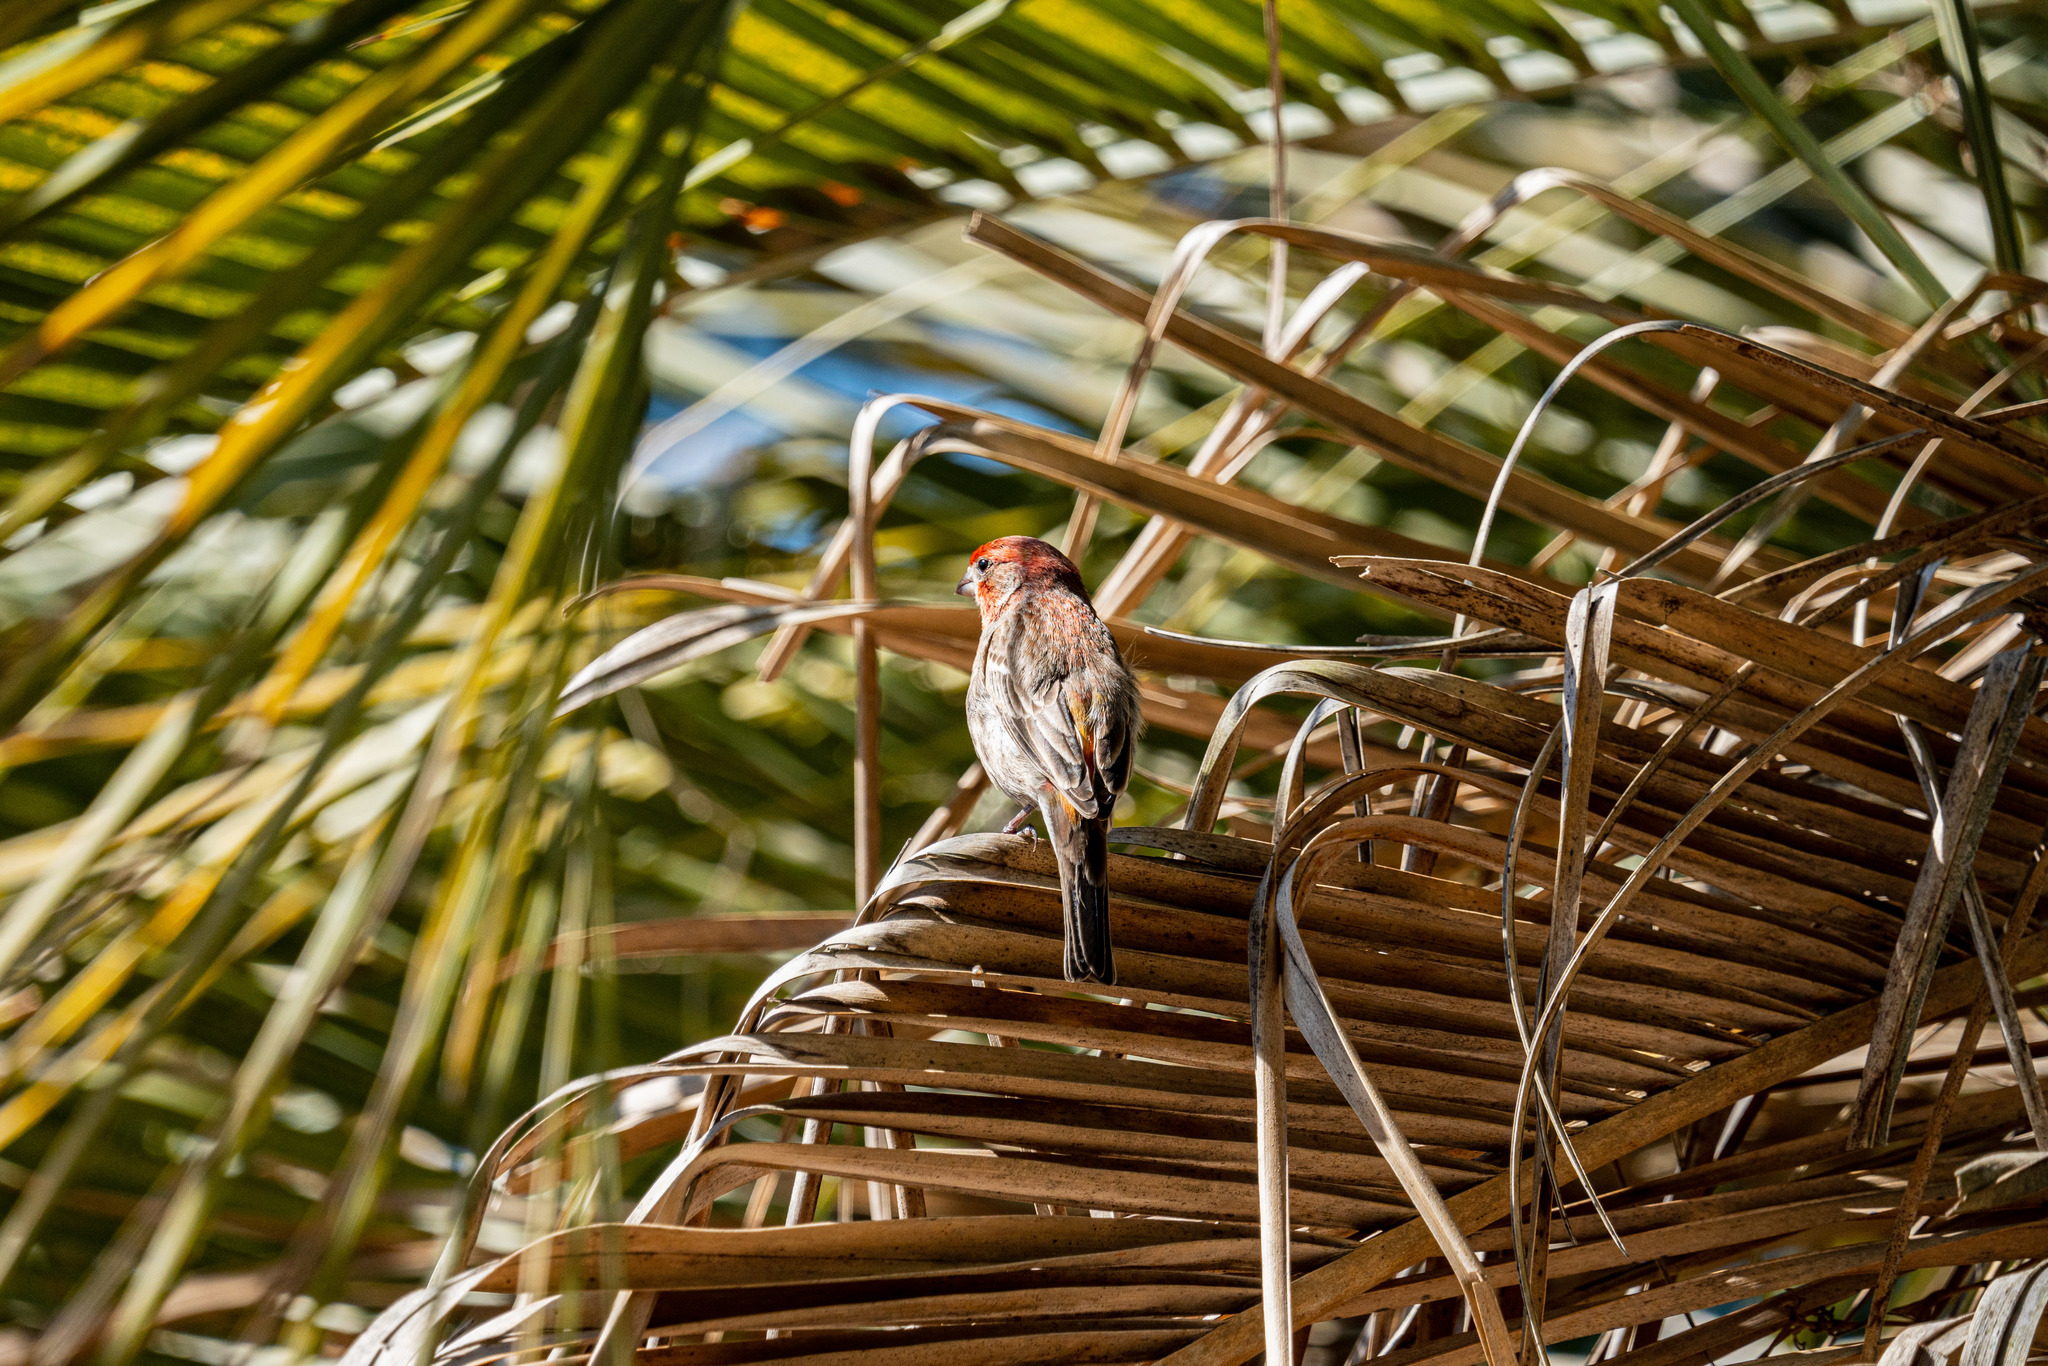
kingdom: Animalia
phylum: Chordata
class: Aves
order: Passeriformes
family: Fringillidae
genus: Haemorhous
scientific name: Haemorhous mexicanus
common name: House finch
